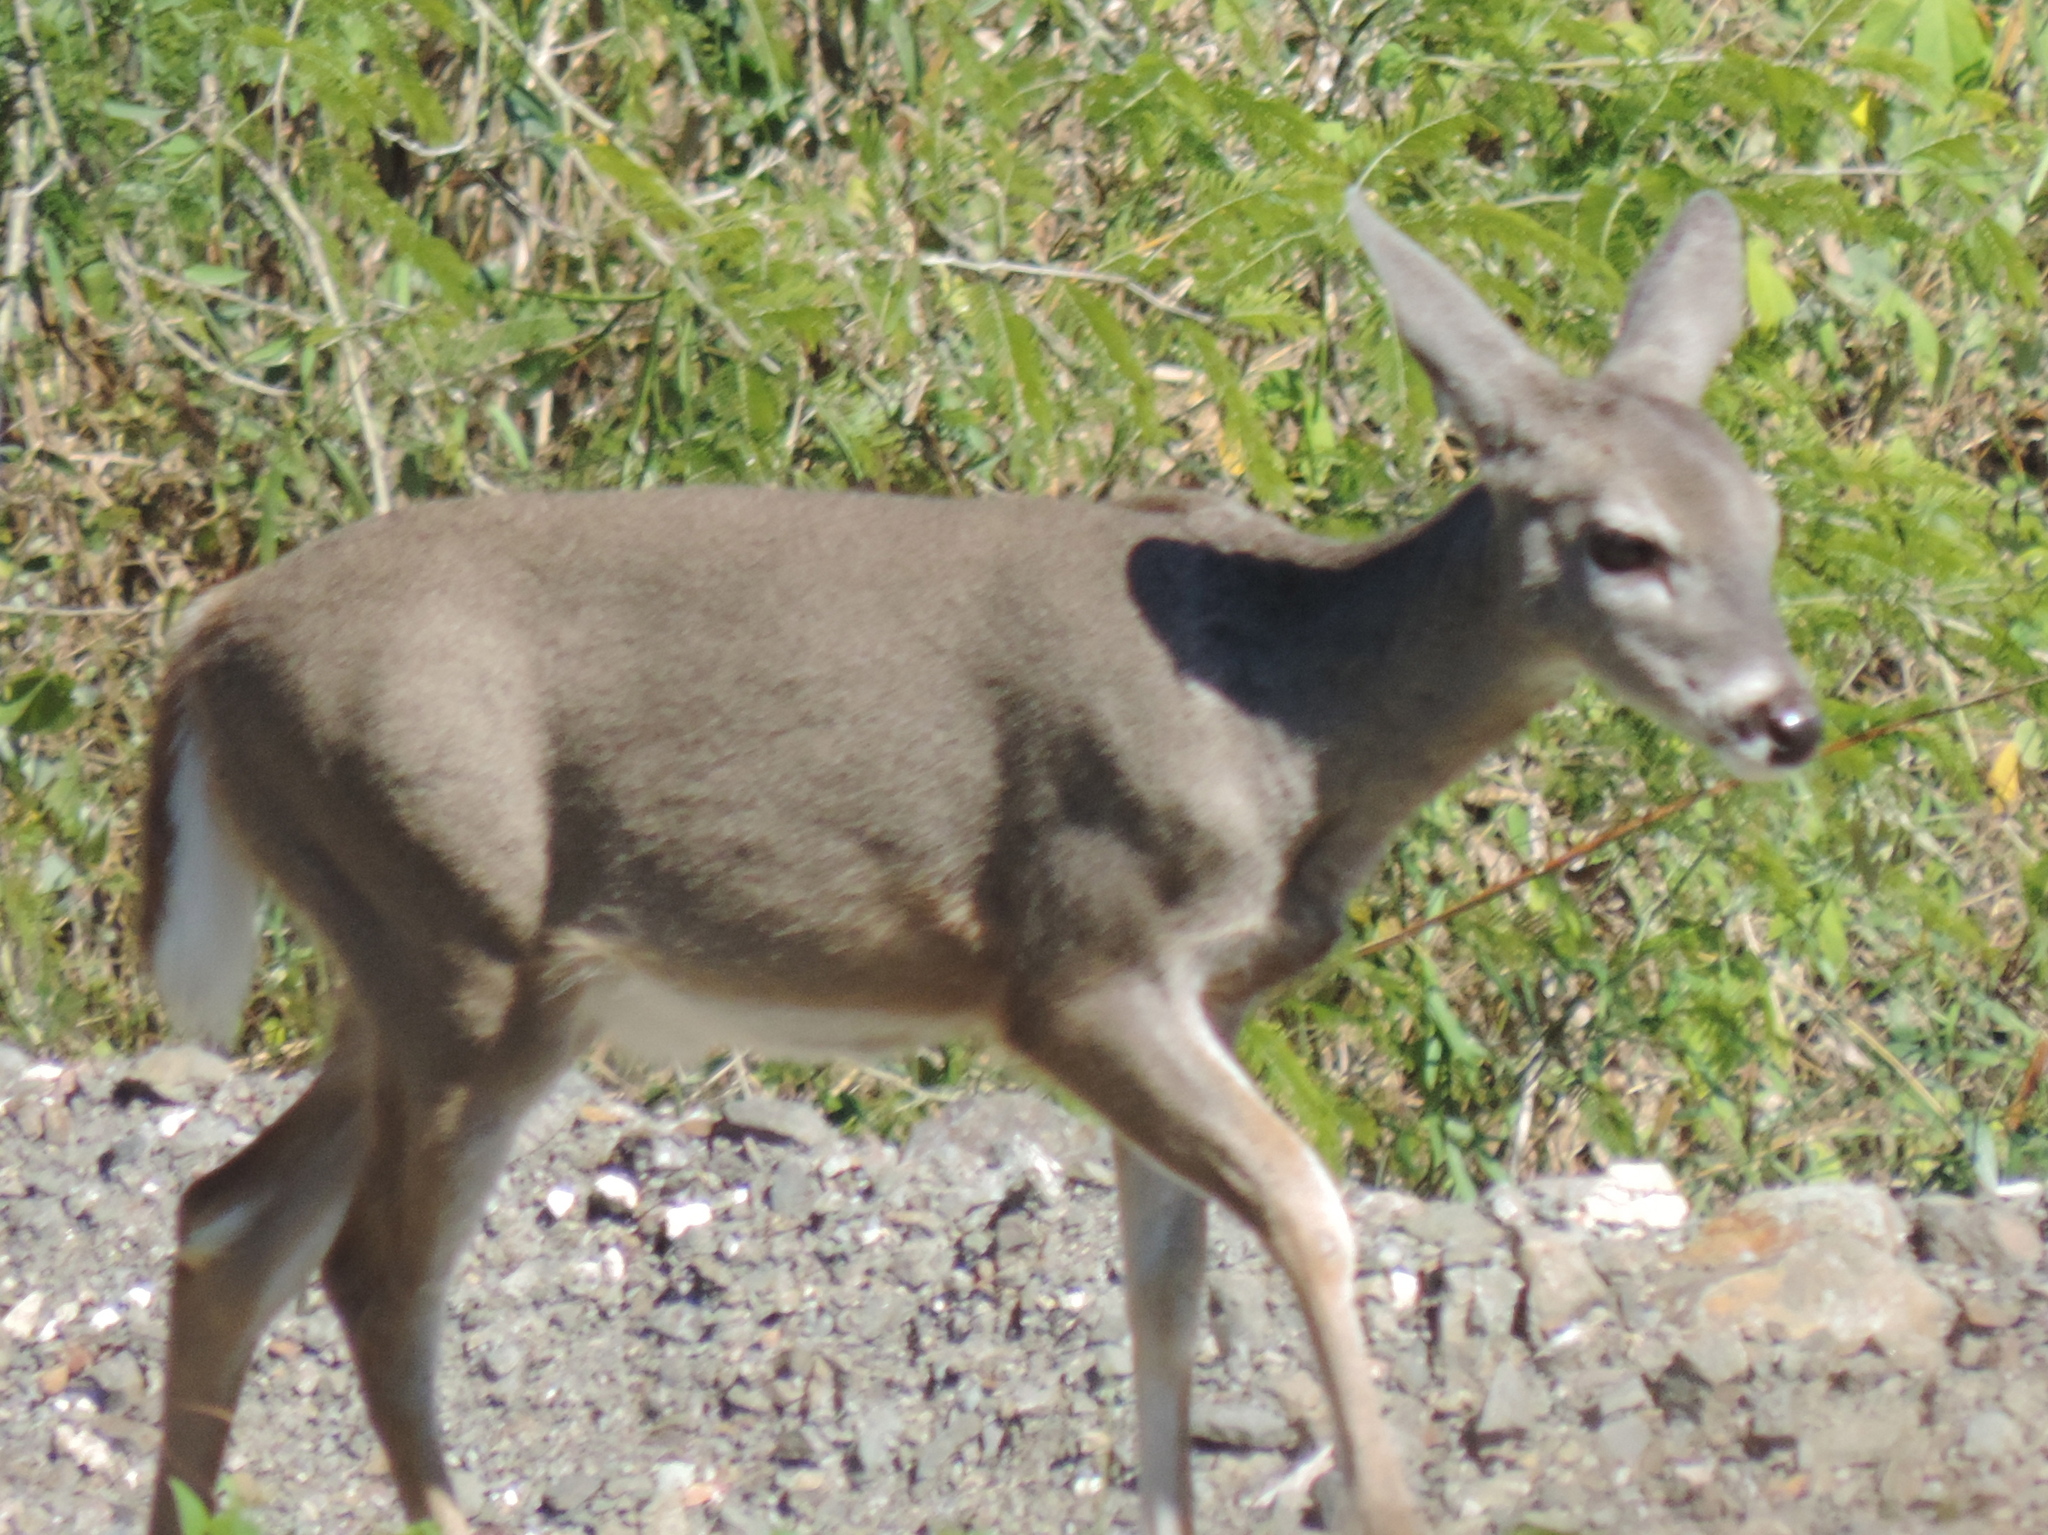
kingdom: Animalia
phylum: Chordata
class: Mammalia
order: Artiodactyla
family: Cervidae
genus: Odocoileus
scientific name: Odocoileus virginianus
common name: White-tailed deer
